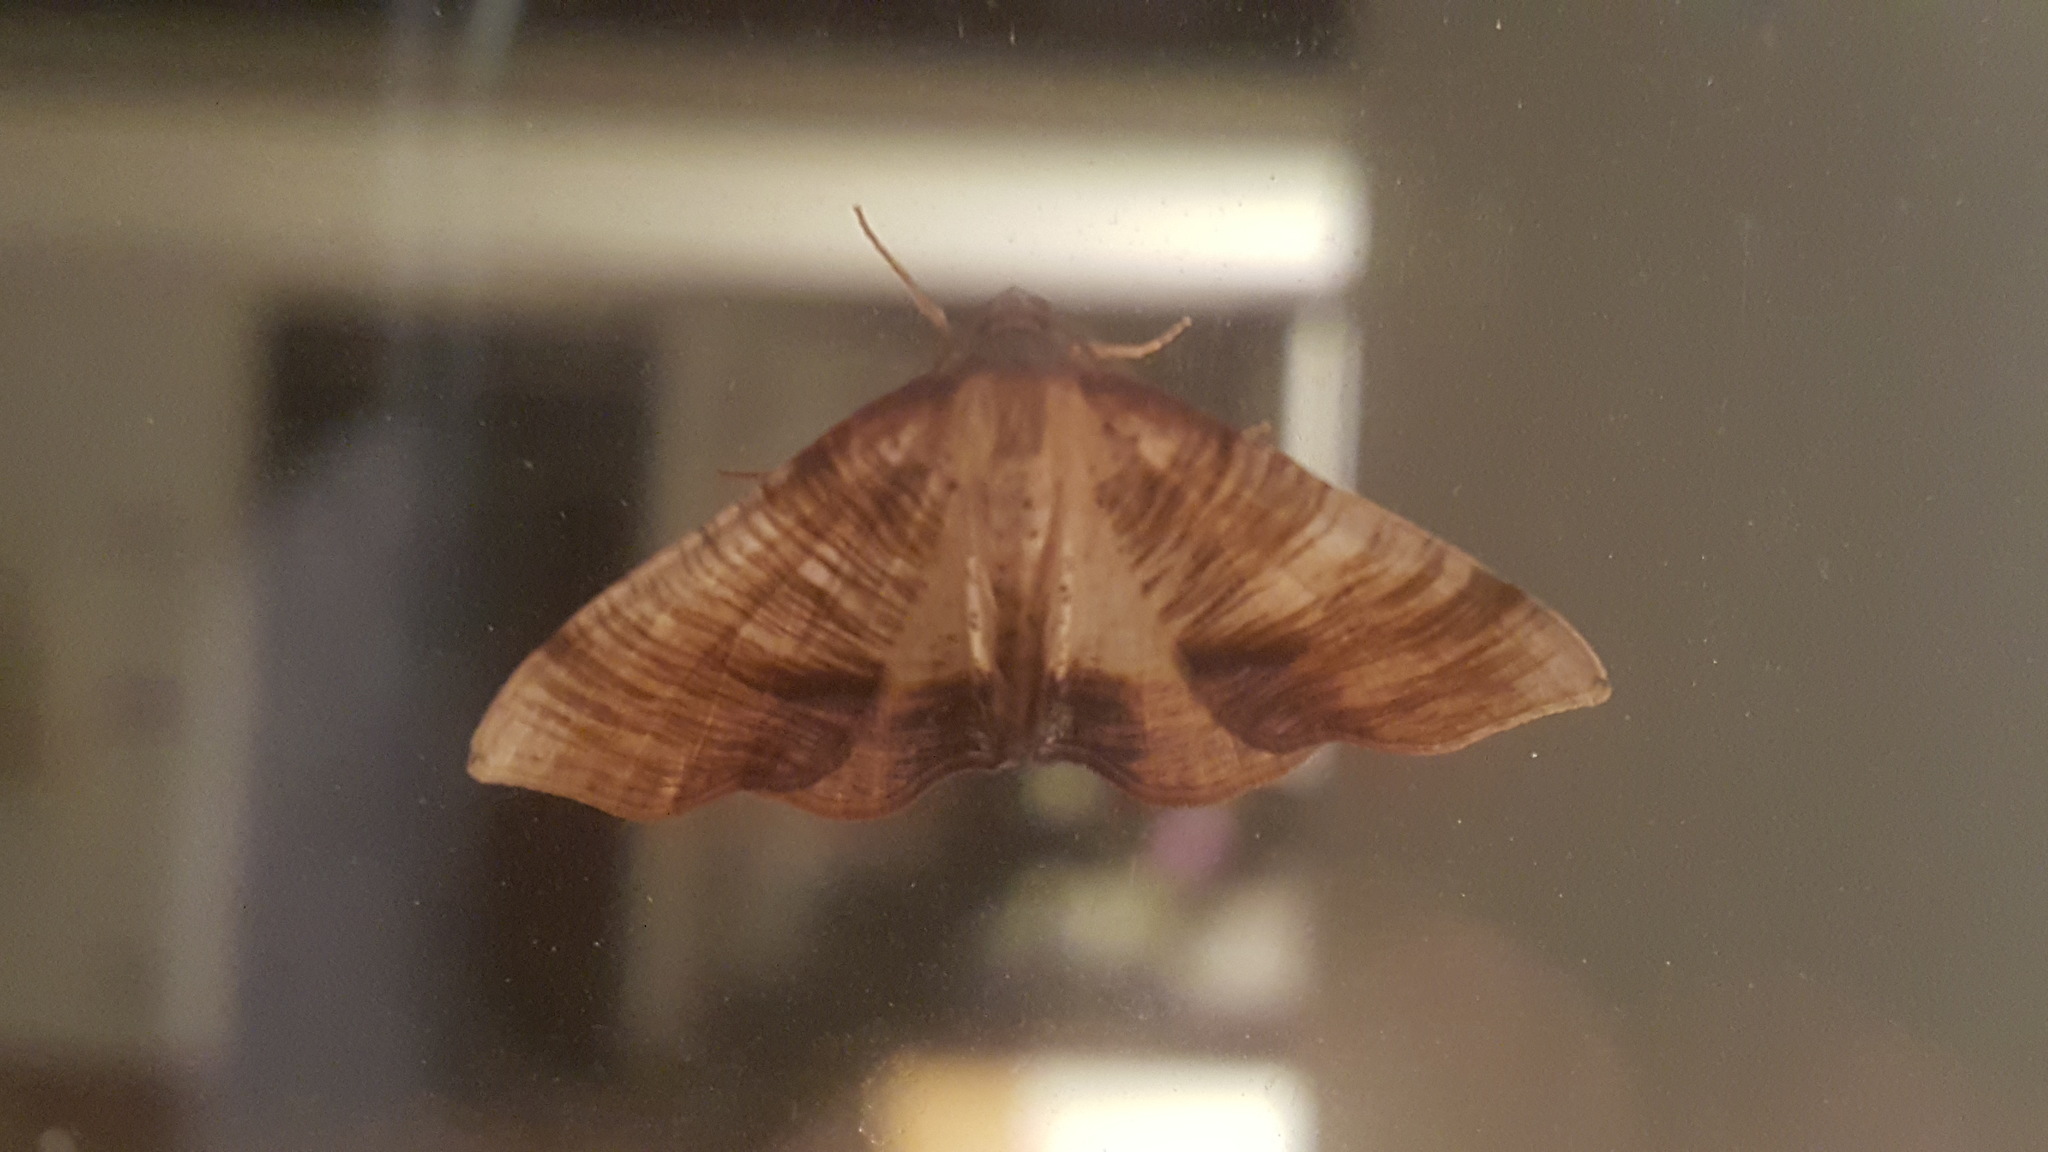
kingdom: Animalia
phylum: Arthropoda
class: Insecta
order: Lepidoptera
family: Geometridae
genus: Plagodis
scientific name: Plagodis dolabraria
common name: Scorched wing
